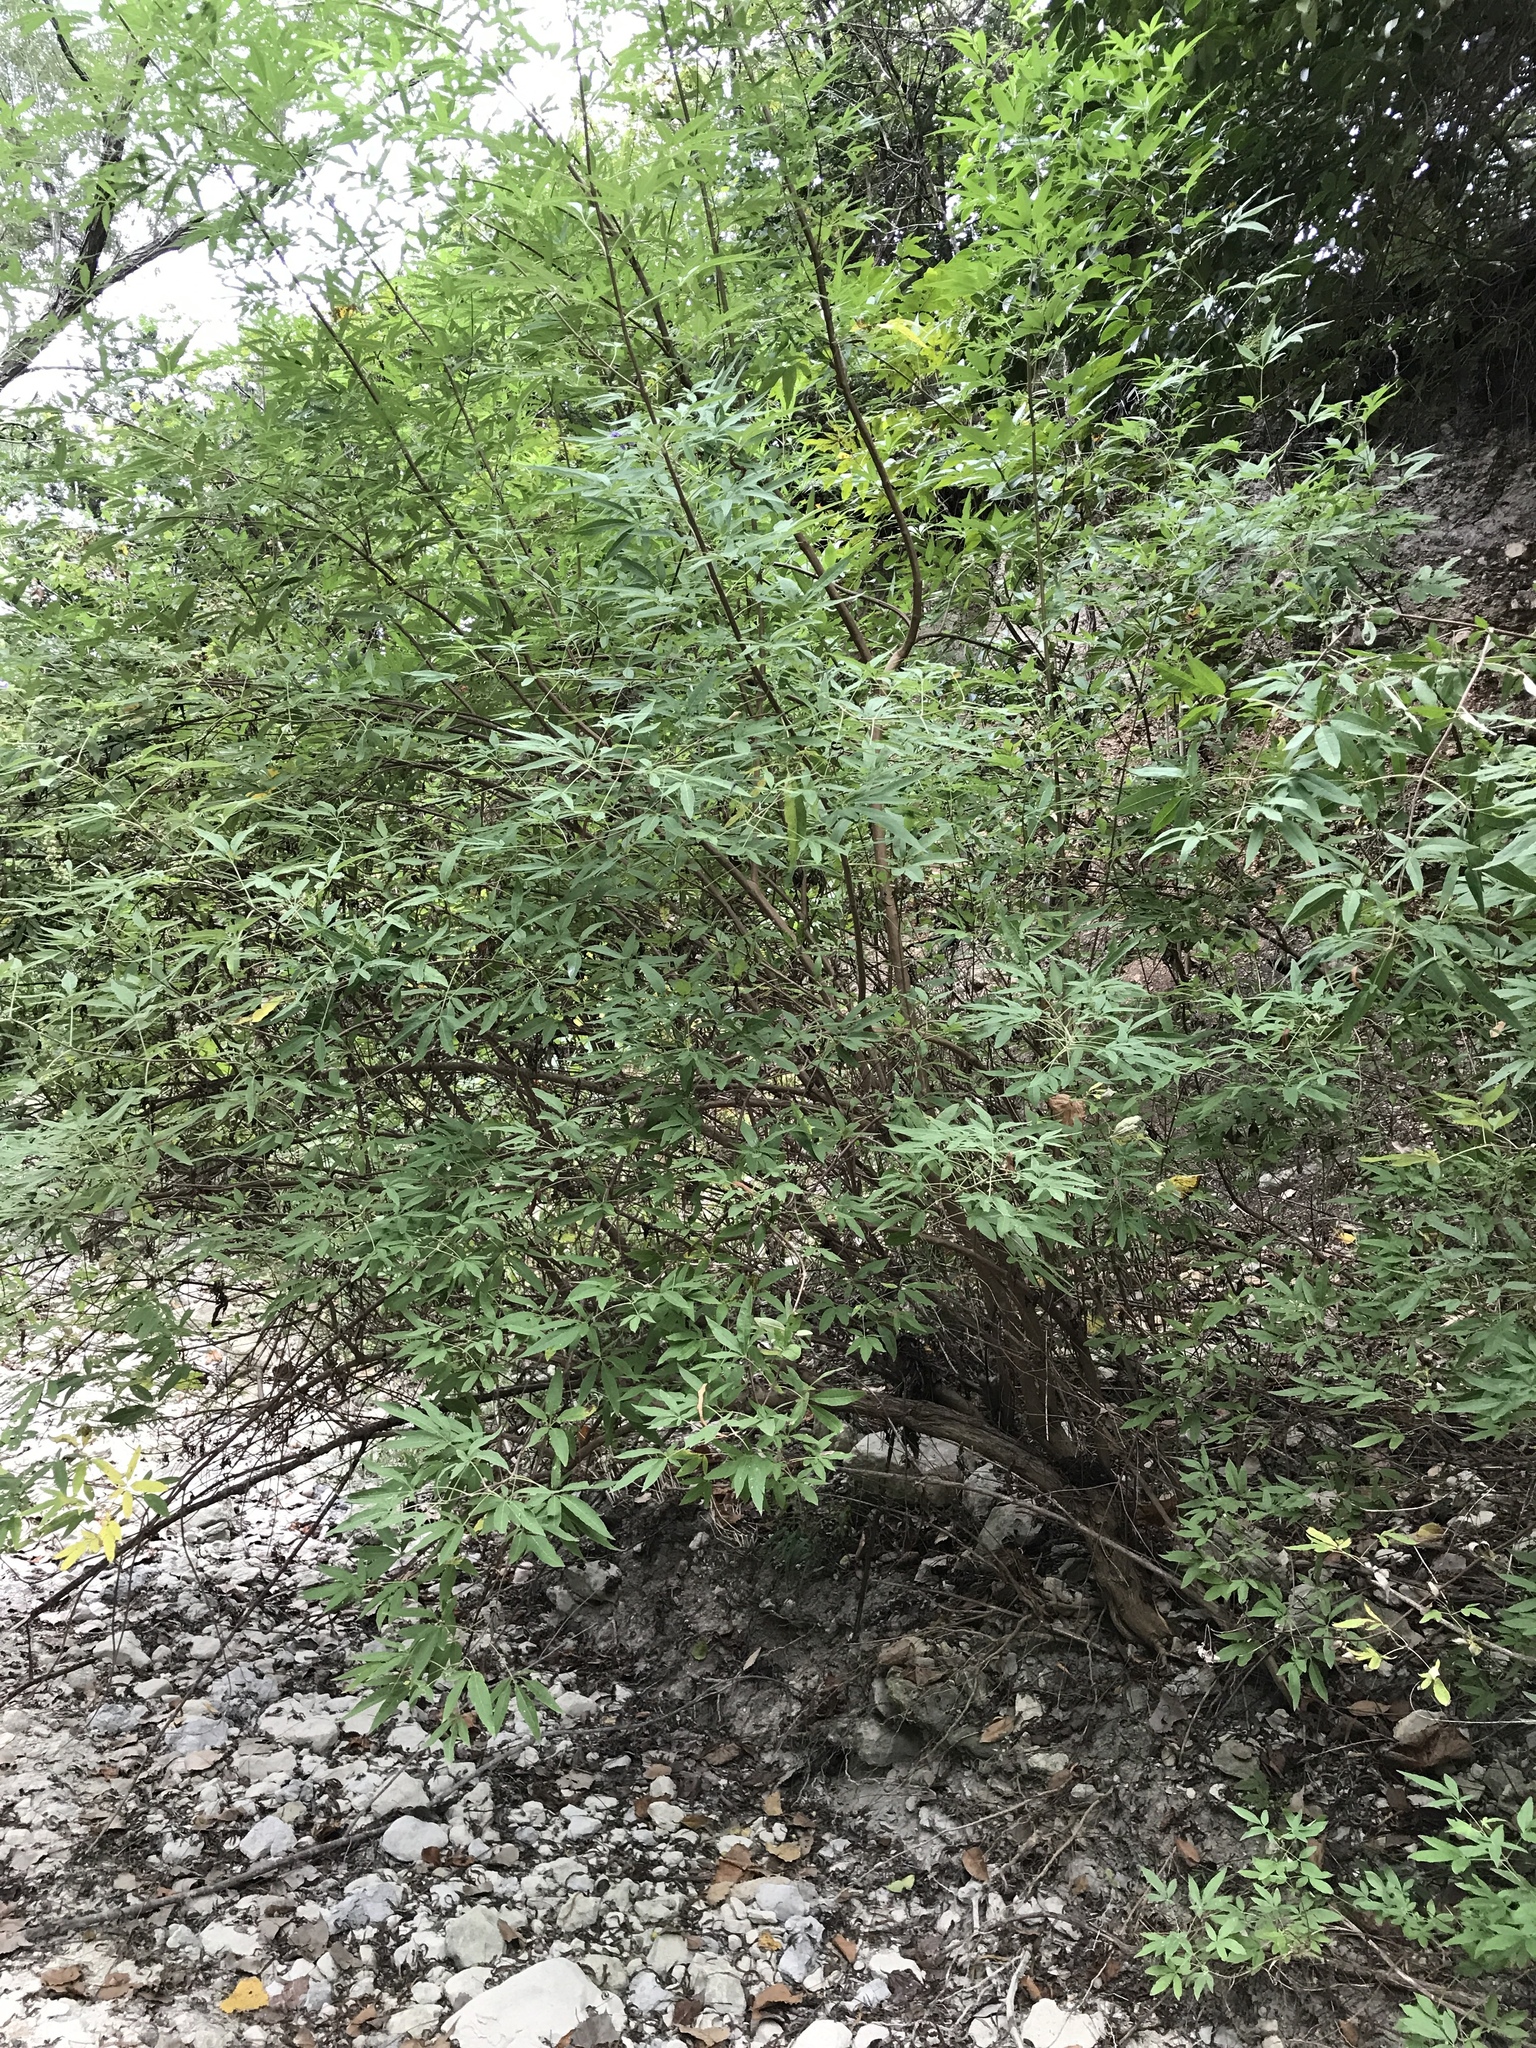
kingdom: Plantae
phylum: Tracheophyta
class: Magnoliopsida
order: Lamiales
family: Lamiaceae
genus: Vitex
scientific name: Vitex agnus-castus
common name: Chasteberry
